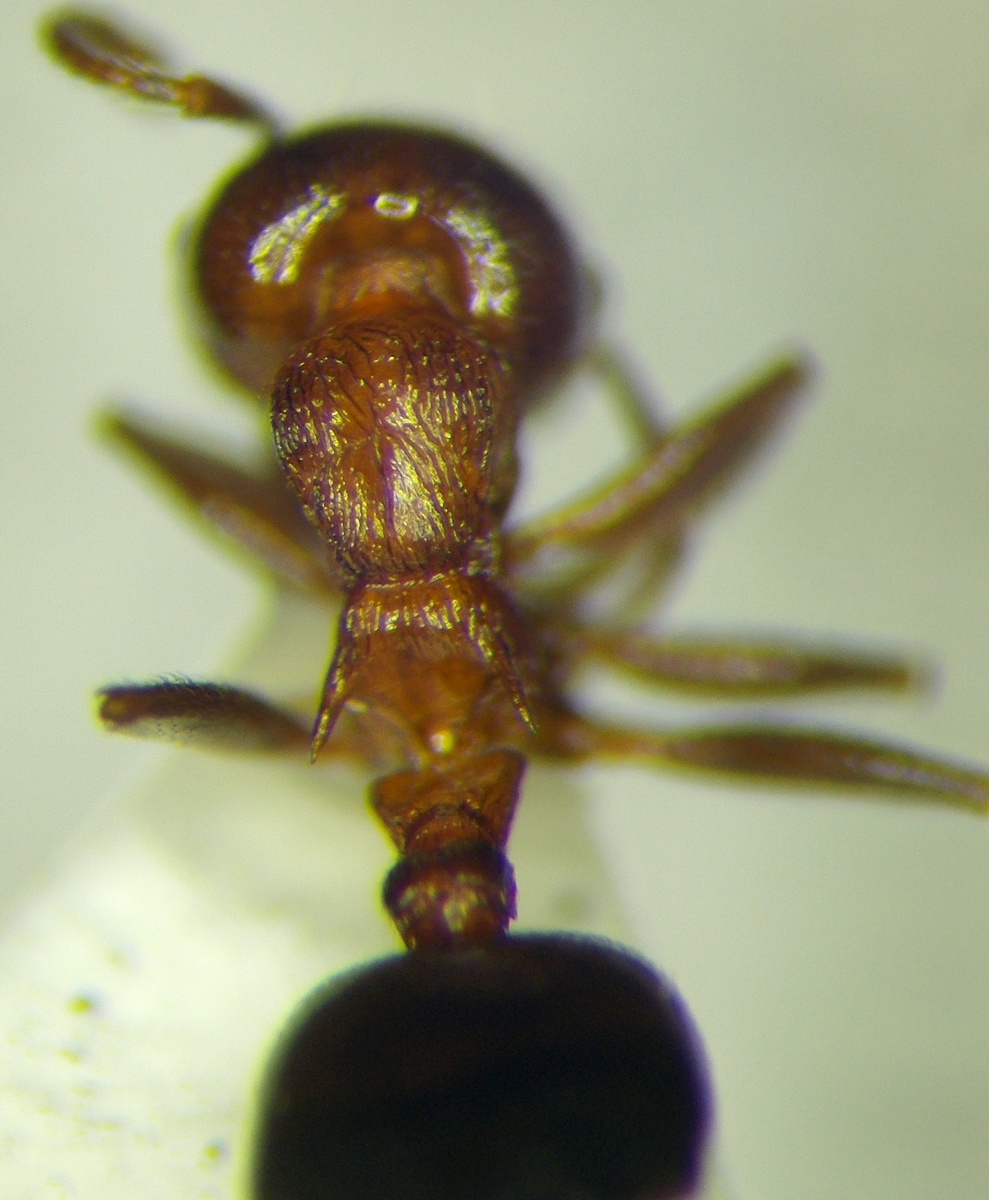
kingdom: Animalia
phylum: Arthropoda
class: Insecta
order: Hymenoptera
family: Formicidae
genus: Crematogaster
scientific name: Crematogaster schmidti
